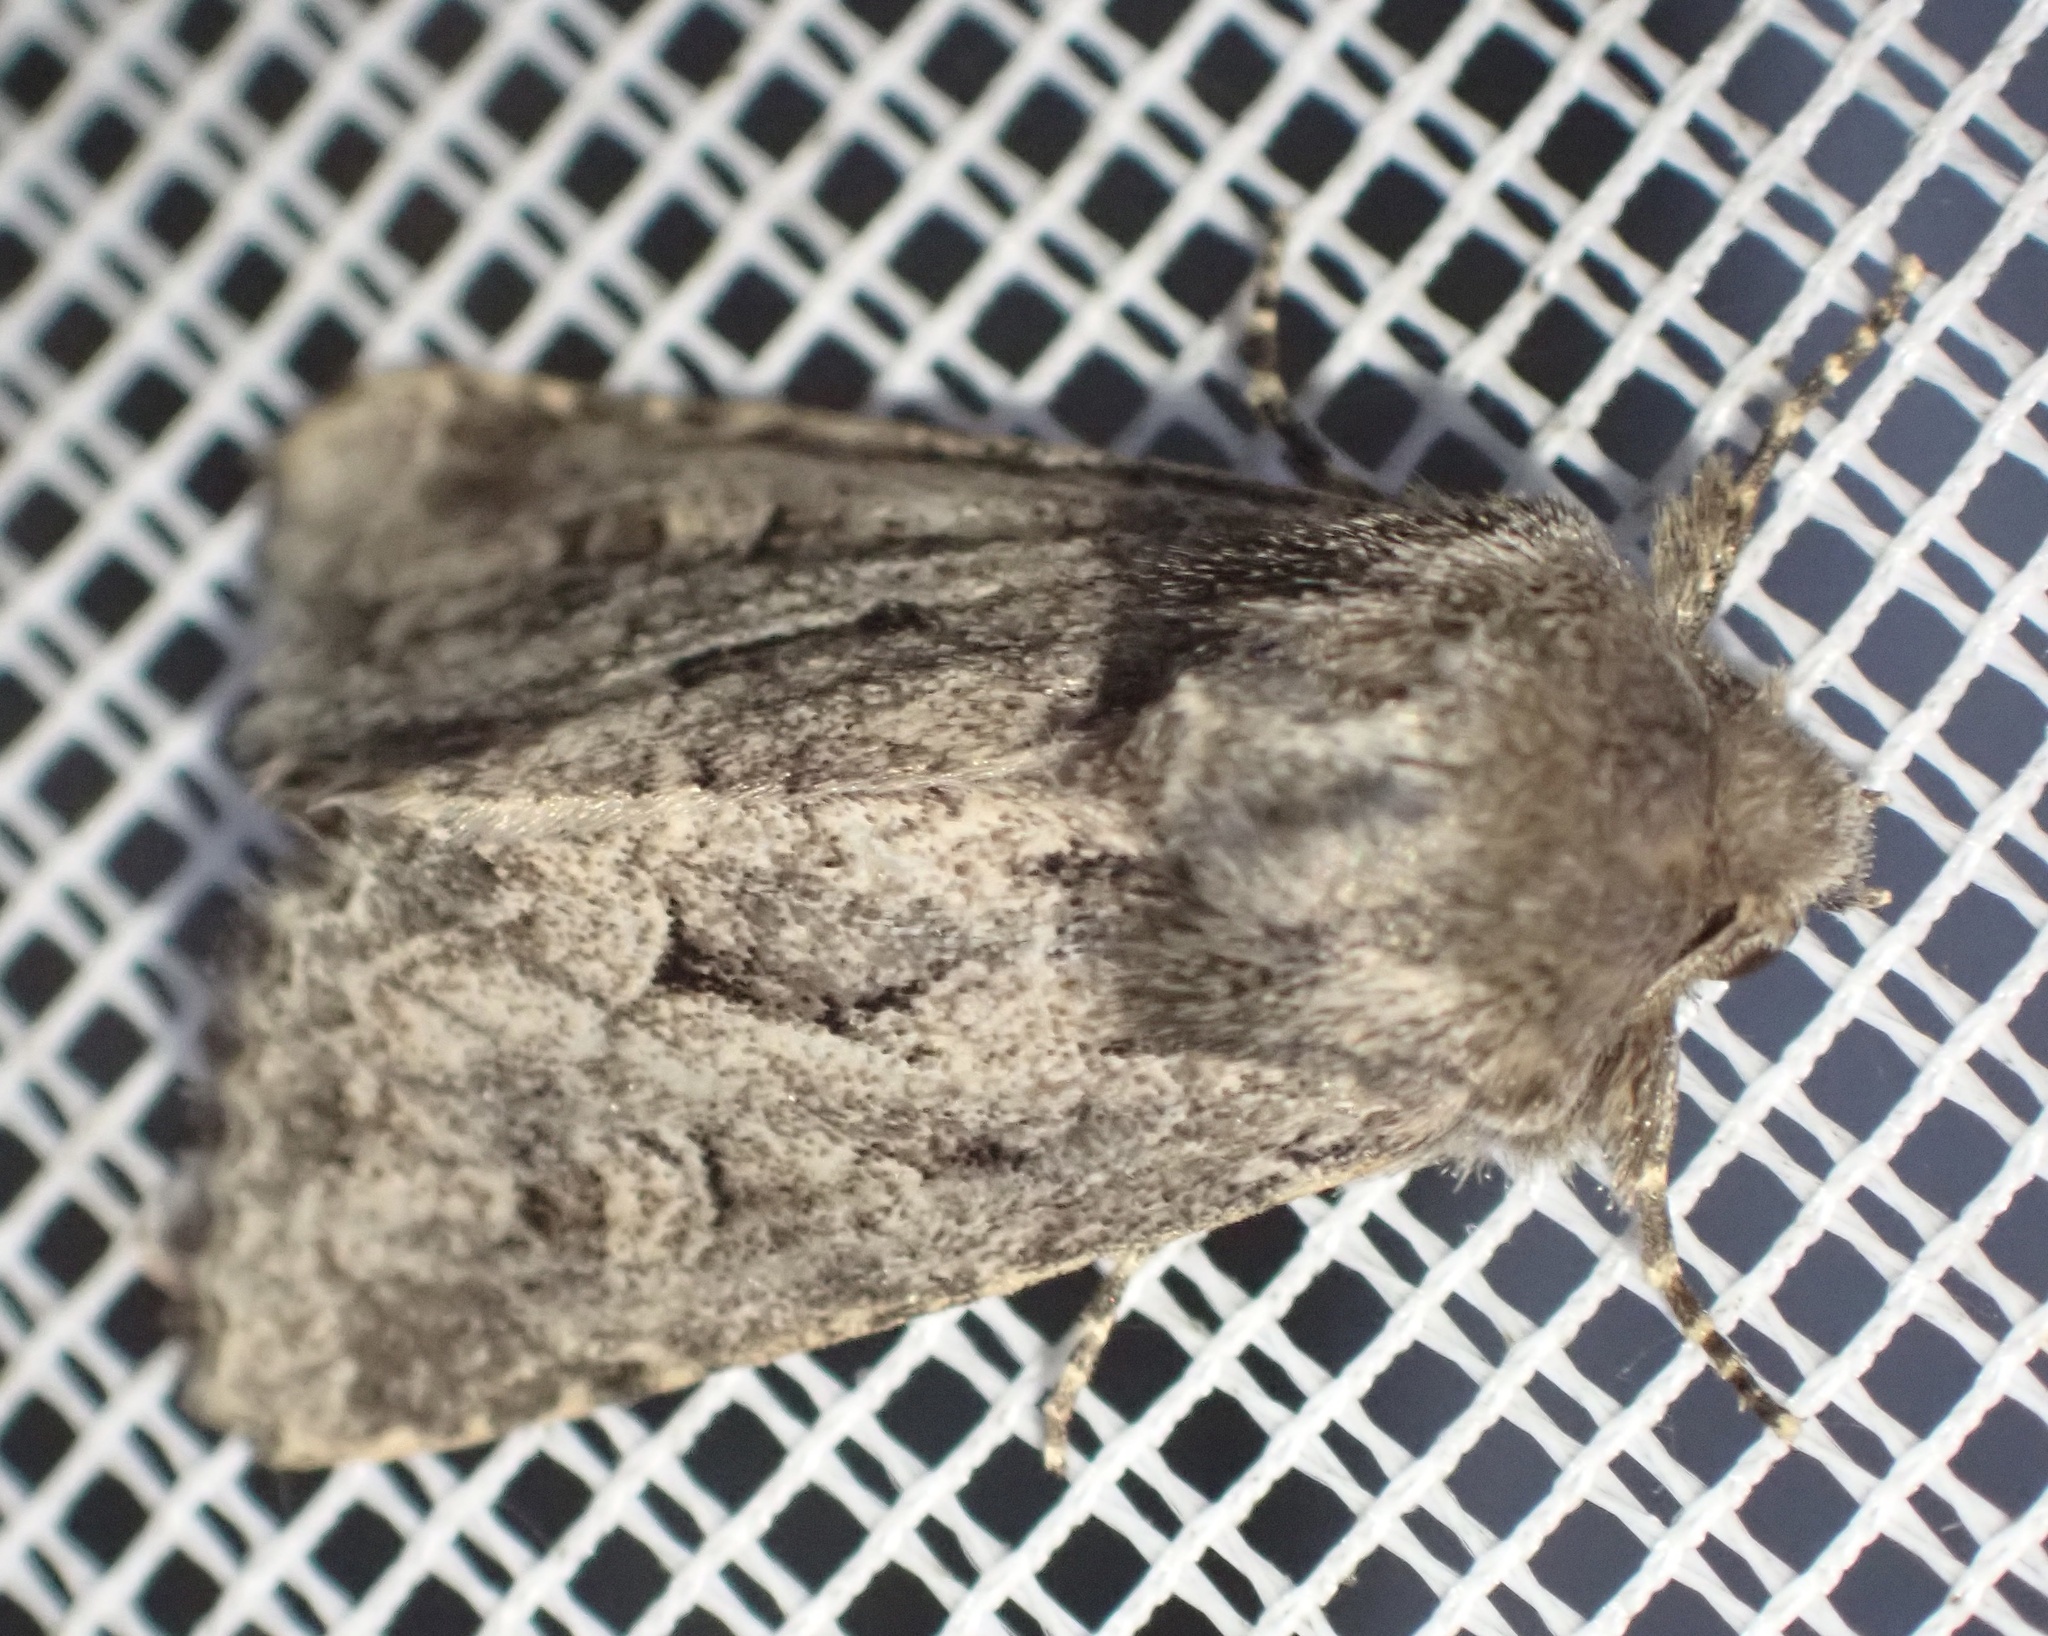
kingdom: Animalia
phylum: Arthropoda
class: Insecta
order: Lepidoptera
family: Noctuidae
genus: Luperina
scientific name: Luperina testacea
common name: Flounced rustic
